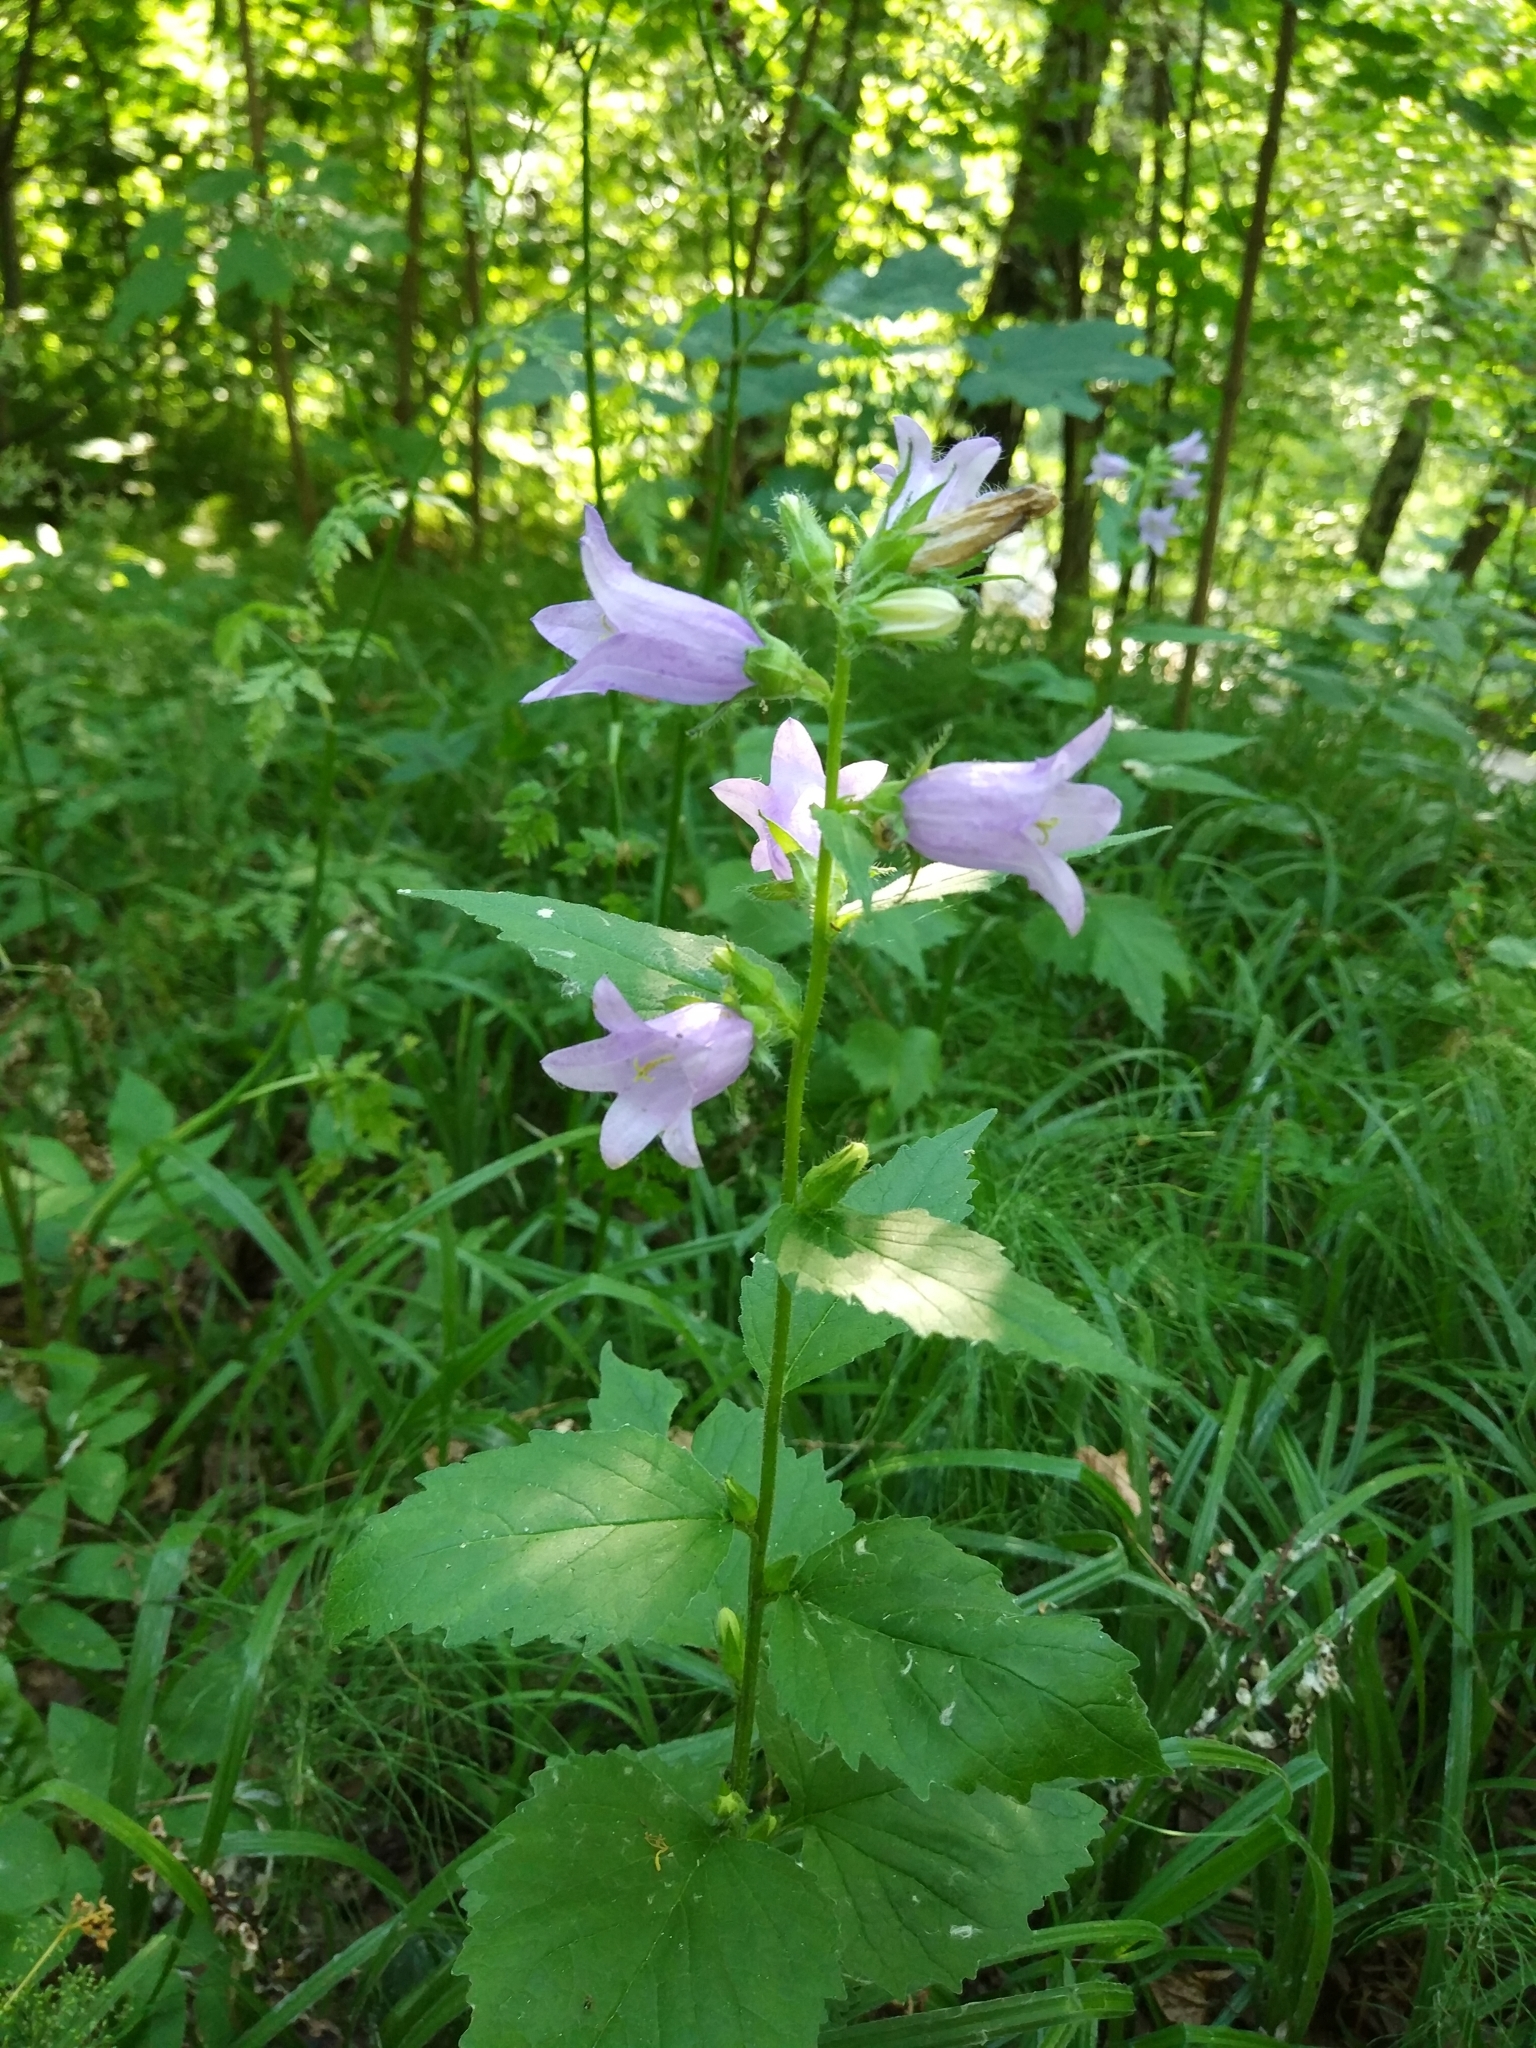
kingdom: Plantae
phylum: Tracheophyta
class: Magnoliopsida
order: Asterales
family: Campanulaceae
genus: Campanula
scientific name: Campanula trachelium
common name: Nettle-leaved bellflower
